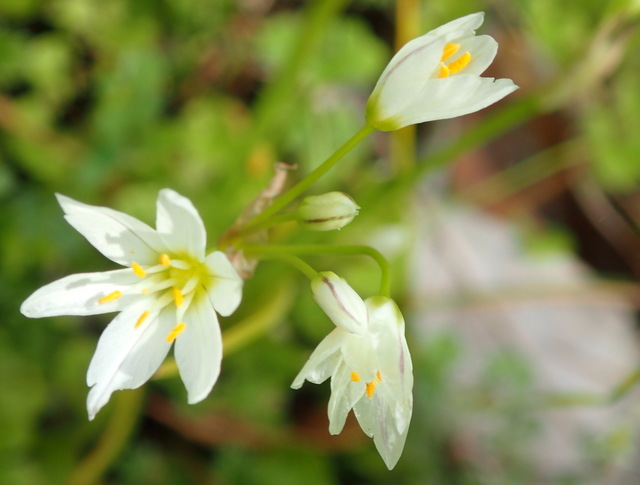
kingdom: Plantae
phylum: Tracheophyta
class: Liliopsida
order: Asparagales
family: Amaryllidaceae
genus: Nothoscordum
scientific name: Nothoscordum bivalve
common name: Crow-poison
